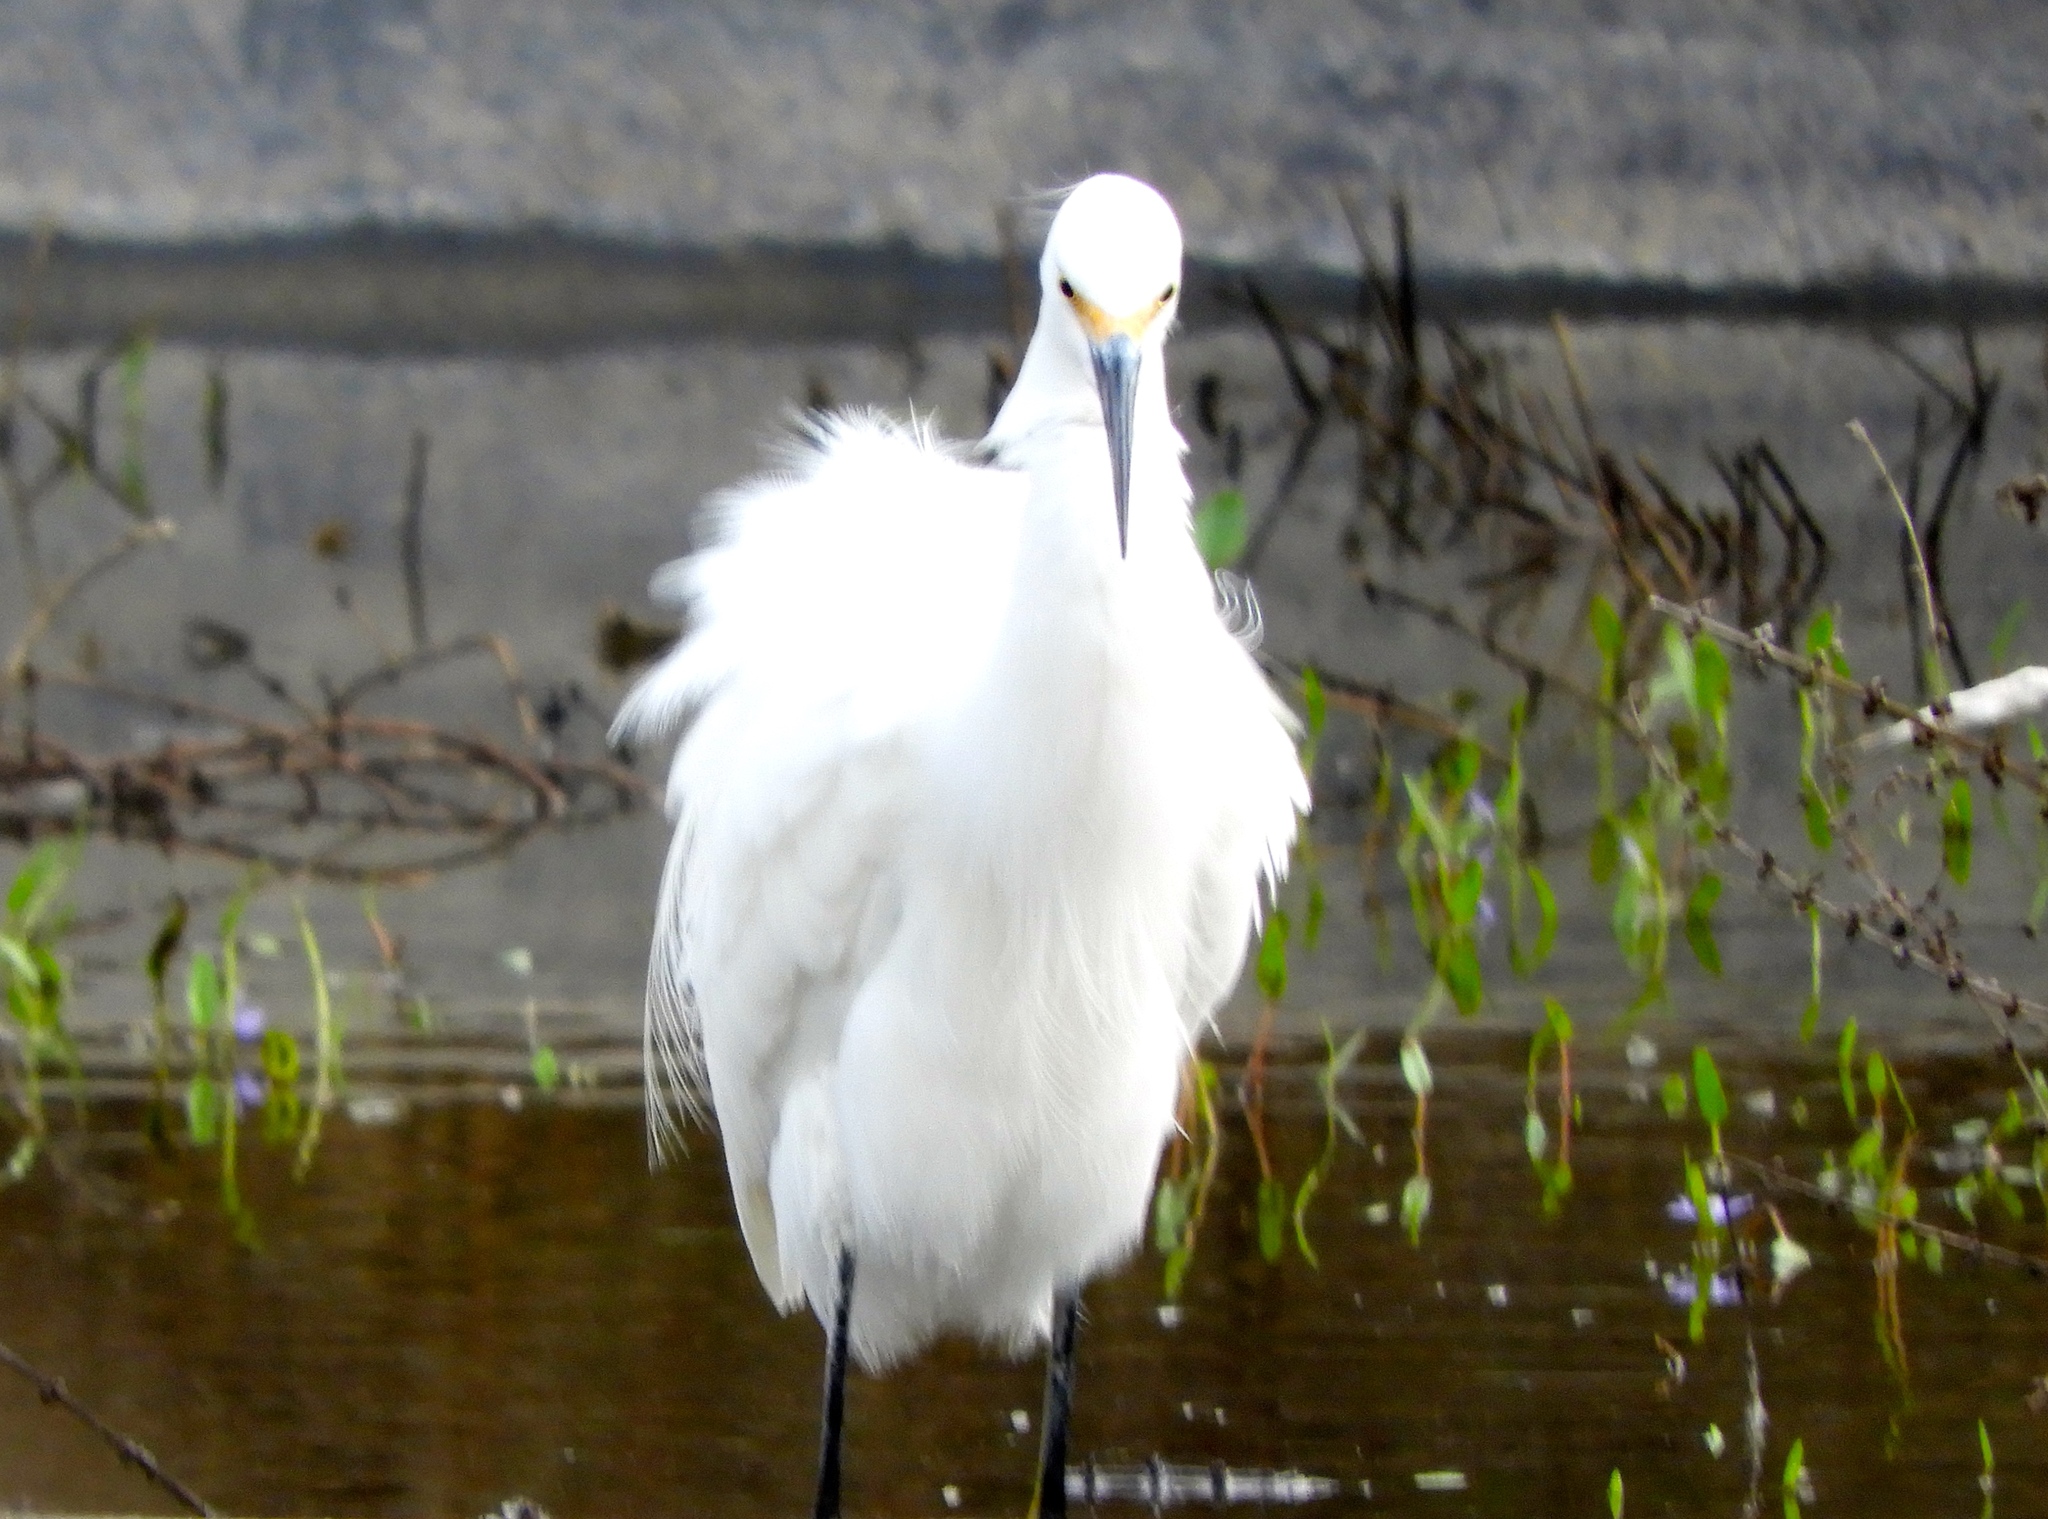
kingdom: Animalia
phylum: Chordata
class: Aves
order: Pelecaniformes
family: Ardeidae
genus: Egretta
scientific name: Egretta thula
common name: Snowy egret
